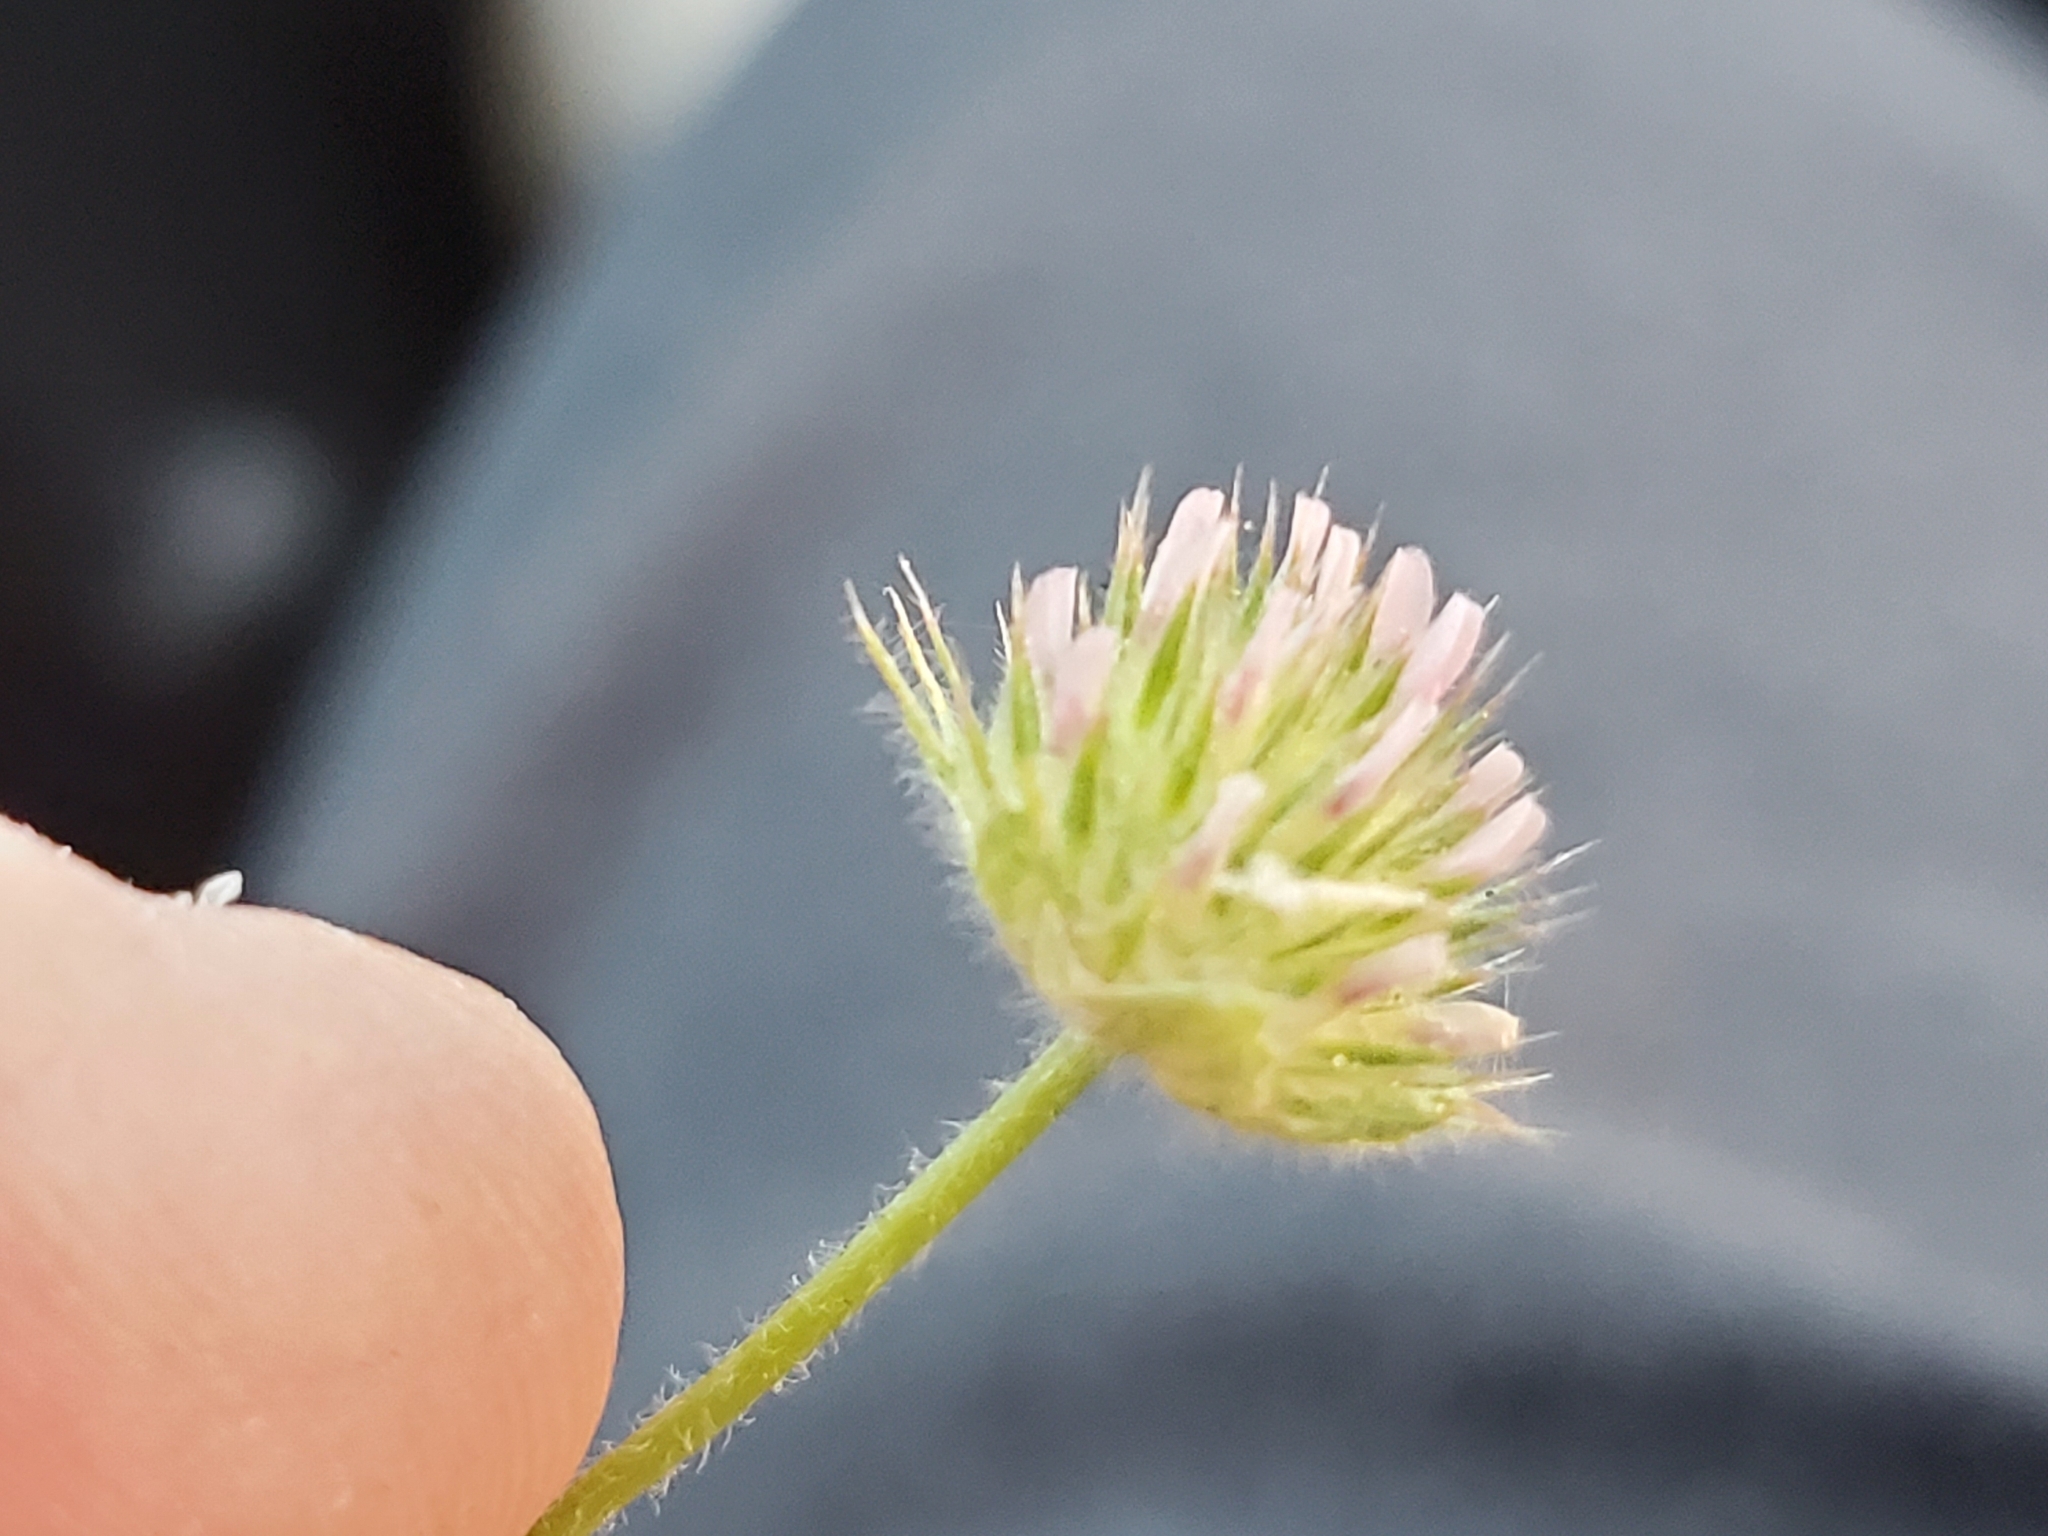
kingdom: Plantae
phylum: Tracheophyta
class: Magnoliopsida
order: Fabales
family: Fabaceae
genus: Trifolium
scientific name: Trifolium microcephalum
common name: Maiden clover
